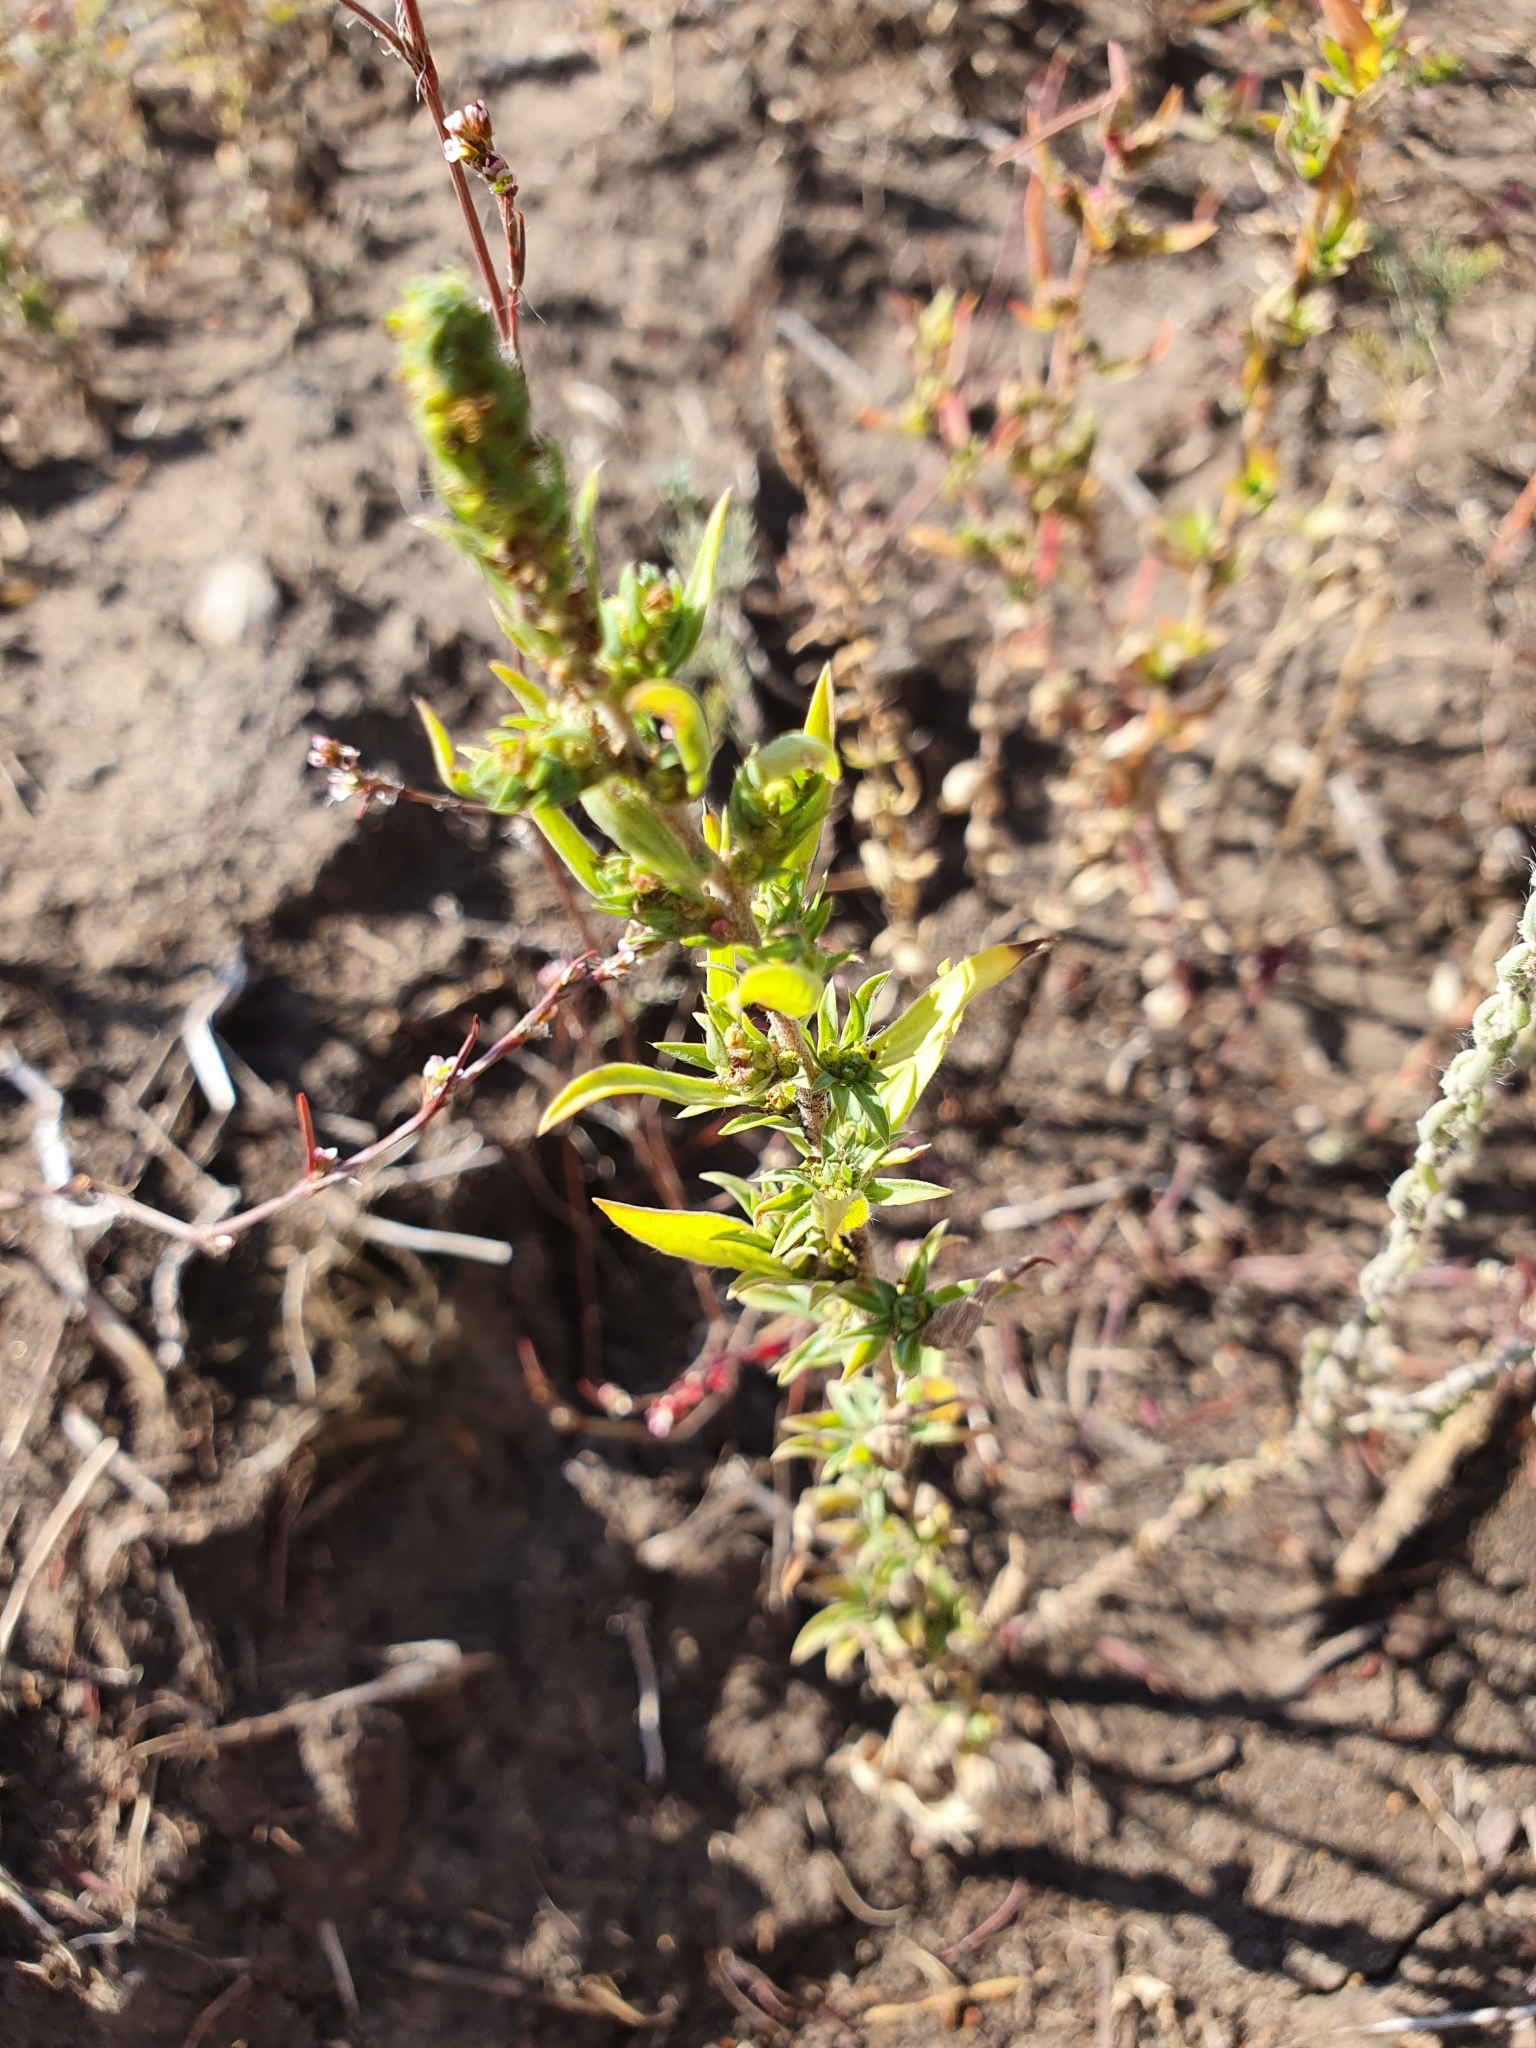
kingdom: Plantae
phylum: Tracheophyta
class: Magnoliopsida
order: Caryophyllales
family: Amaranthaceae
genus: Bassia
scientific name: Bassia scoparia
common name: Belvedere
